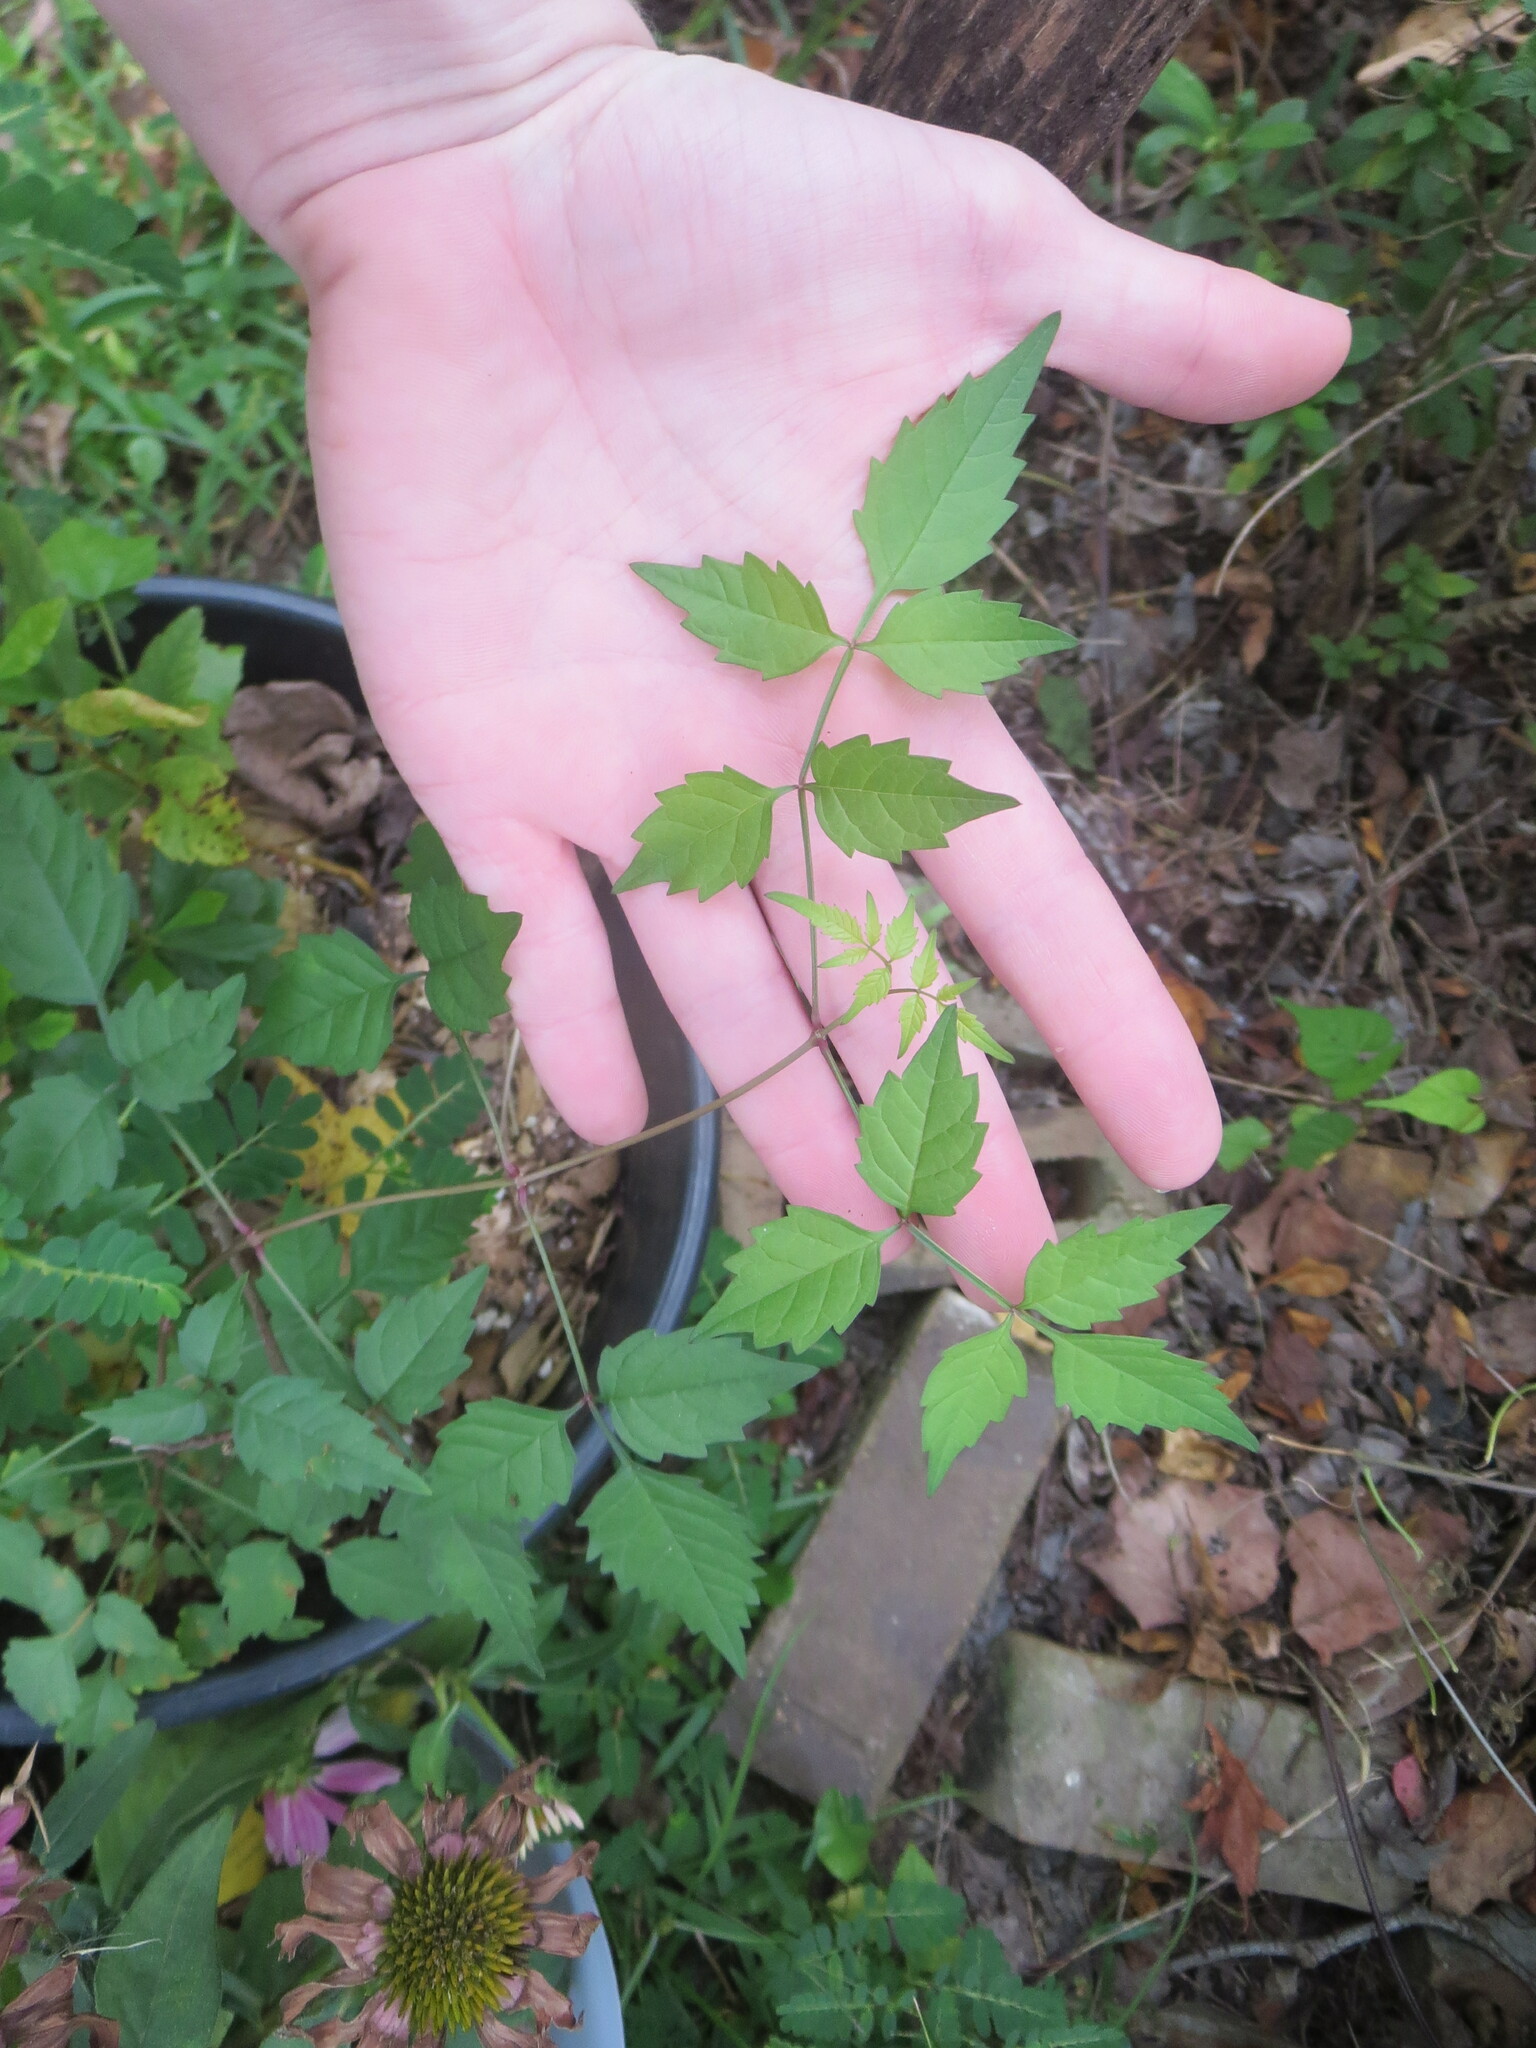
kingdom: Plantae
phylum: Tracheophyta
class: Magnoliopsida
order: Lamiales
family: Bignoniaceae
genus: Campsis
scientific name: Campsis radicans
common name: Trumpet-creeper
